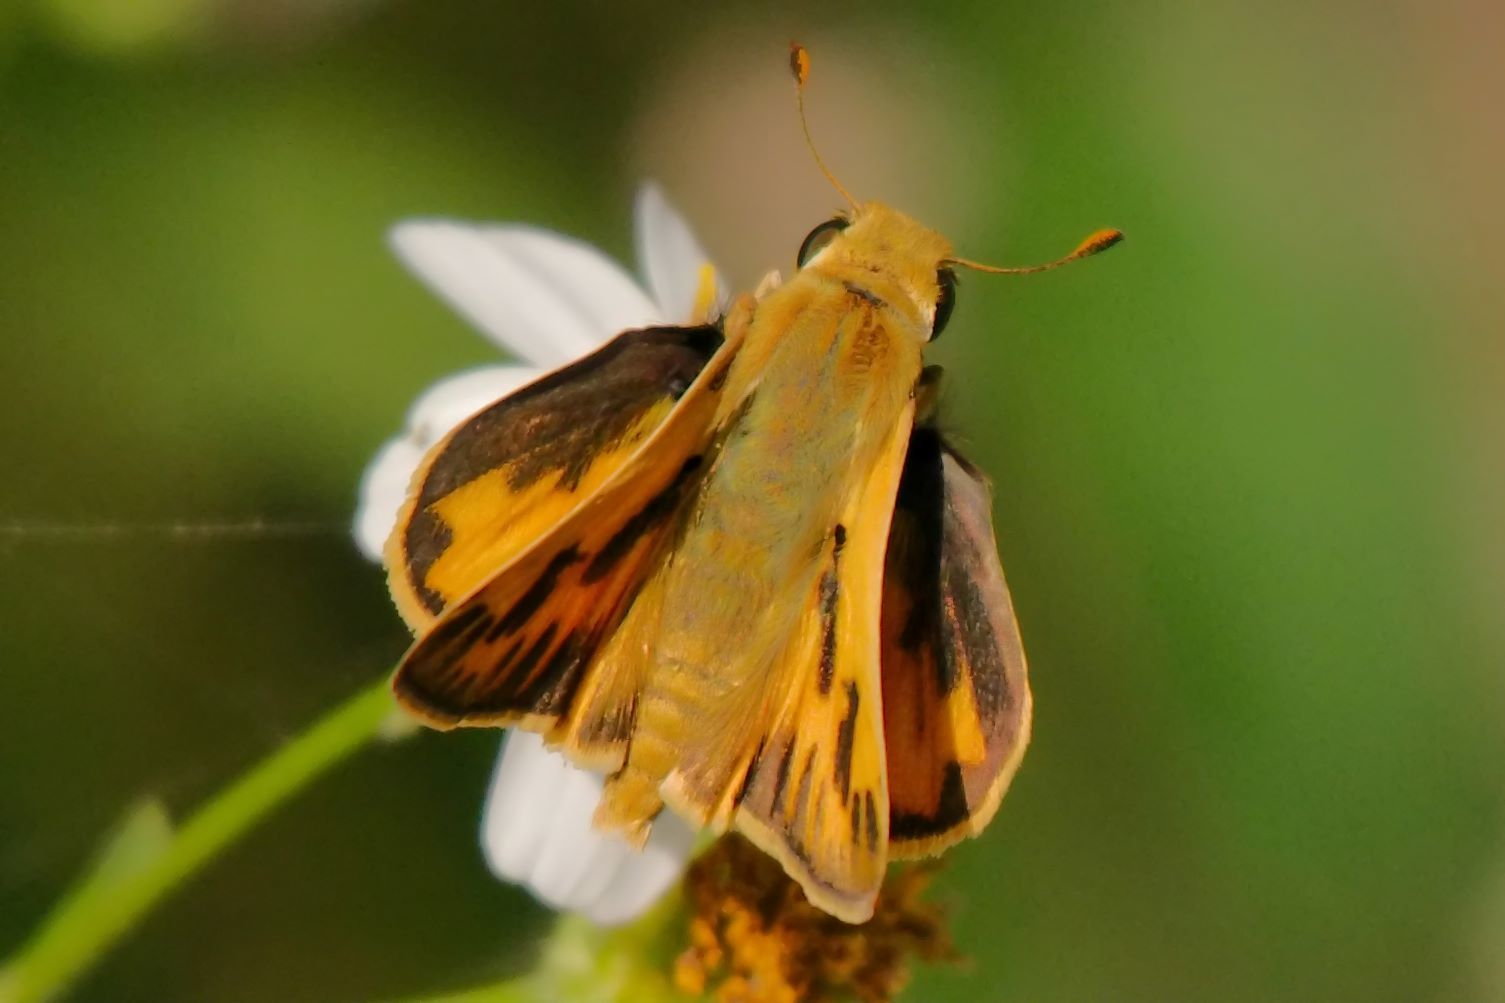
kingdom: Animalia
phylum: Arthropoda
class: Insecta
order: Lepidoptera
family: Hesperiidae
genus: Hylephila
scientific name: Hylephila phyleus
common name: Fiery skipper
